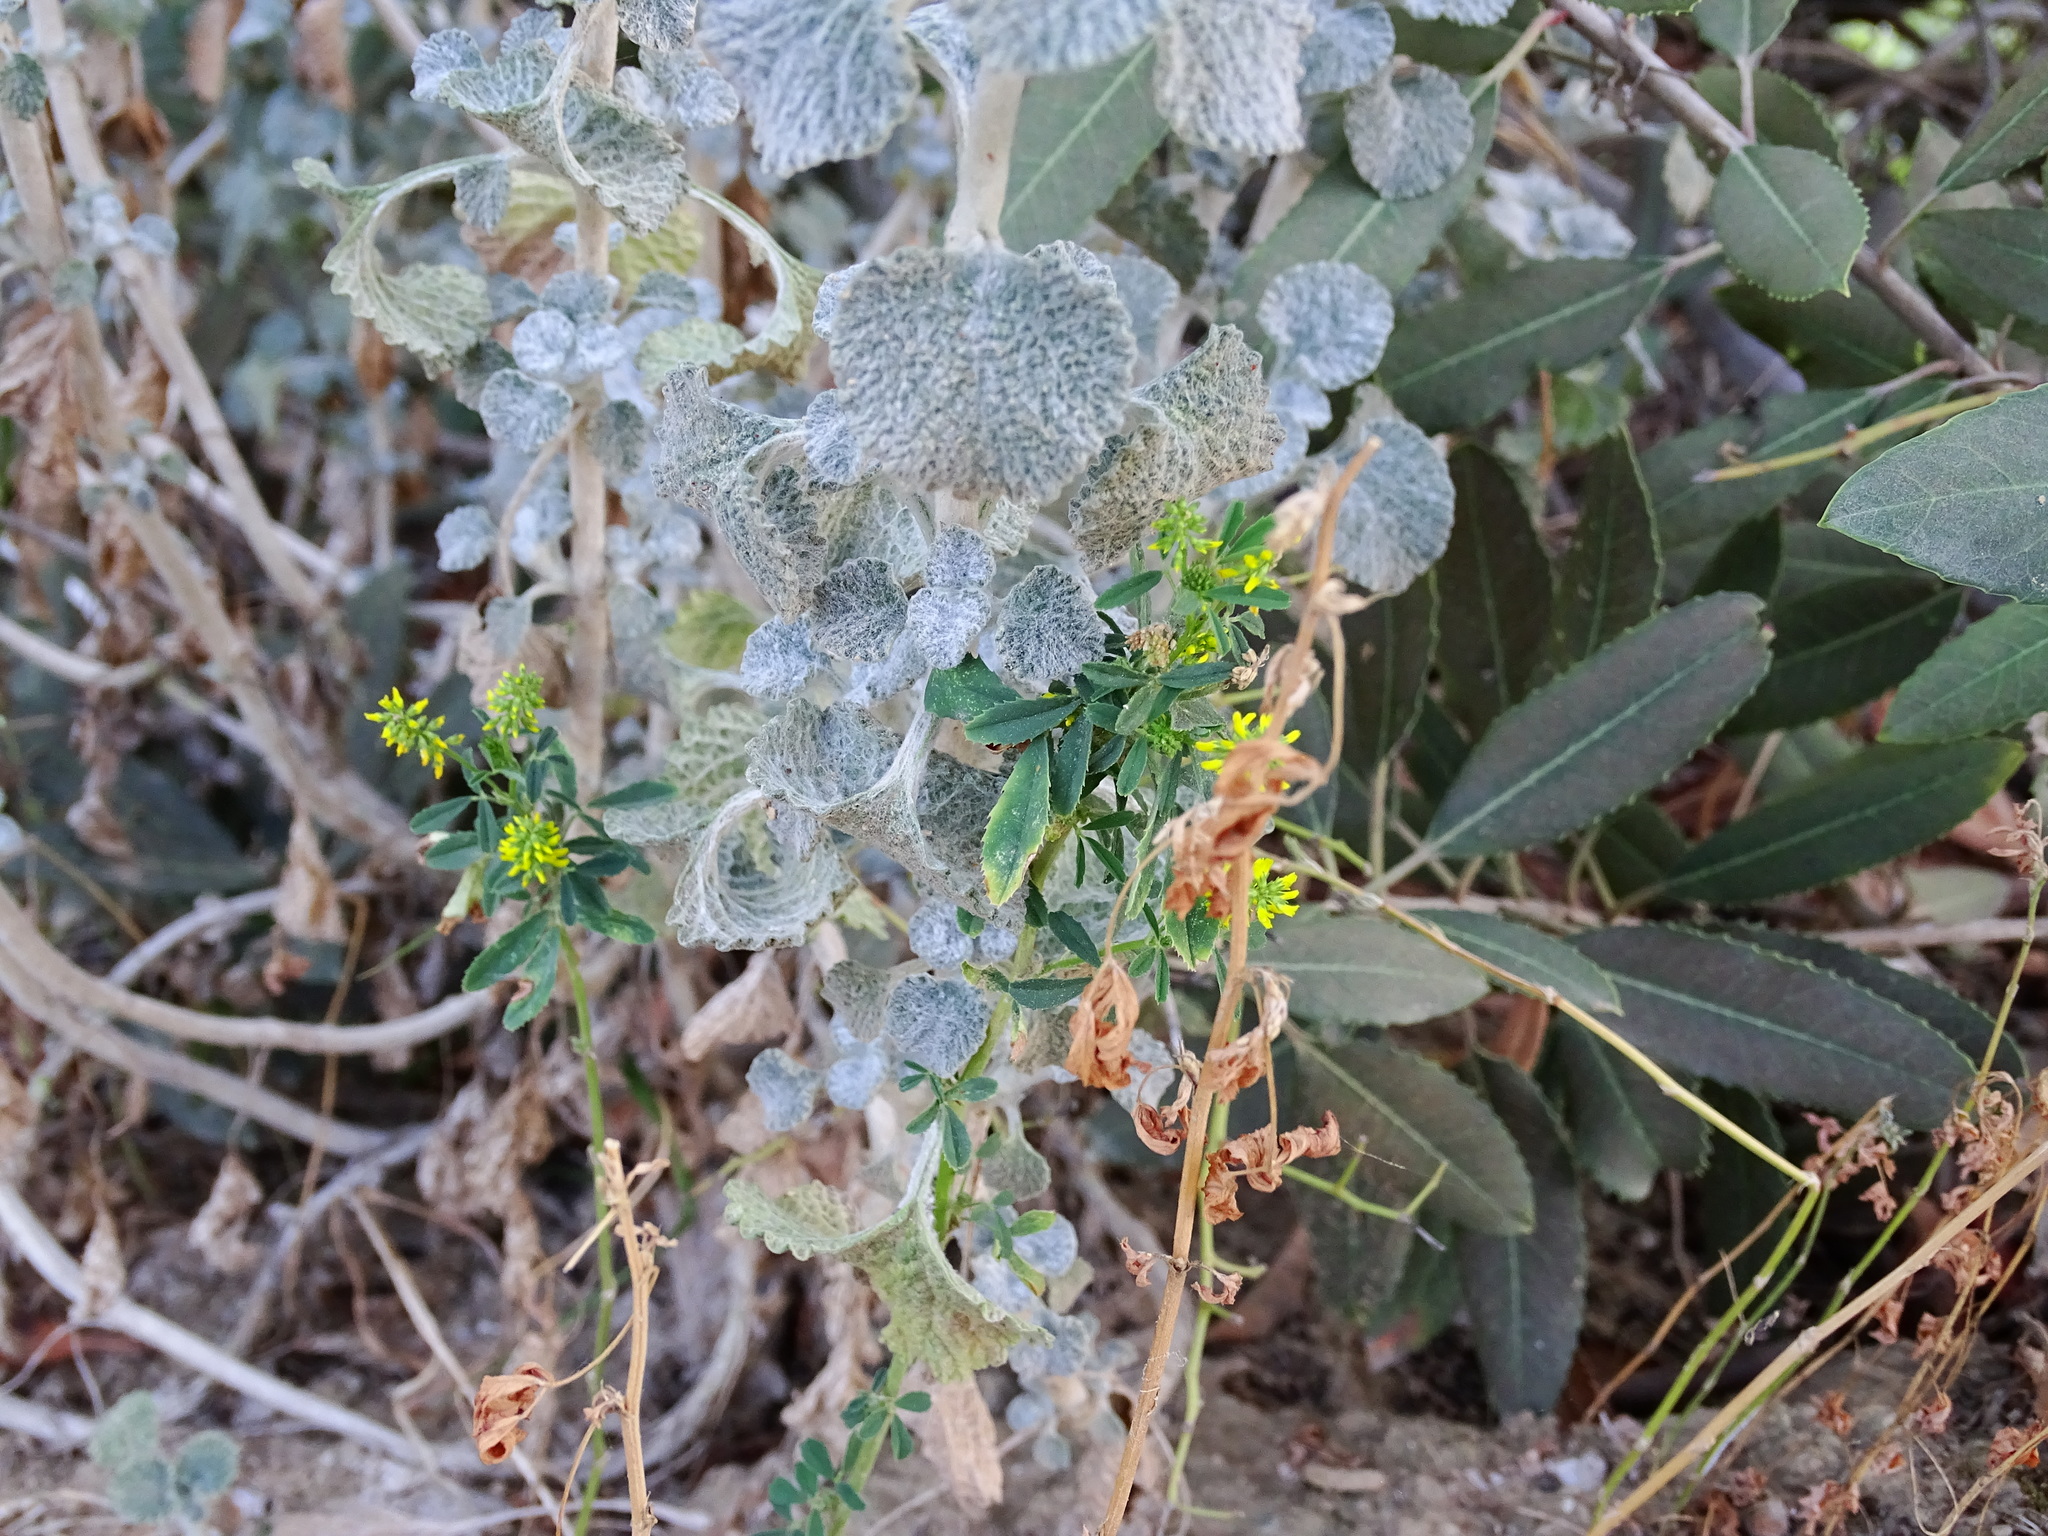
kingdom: Plantae
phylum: Tracheophyta
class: Magnoliopsida
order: Fabales
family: Fabaceae
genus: Melilotus
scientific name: Melilotus indicus
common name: Small melilot
